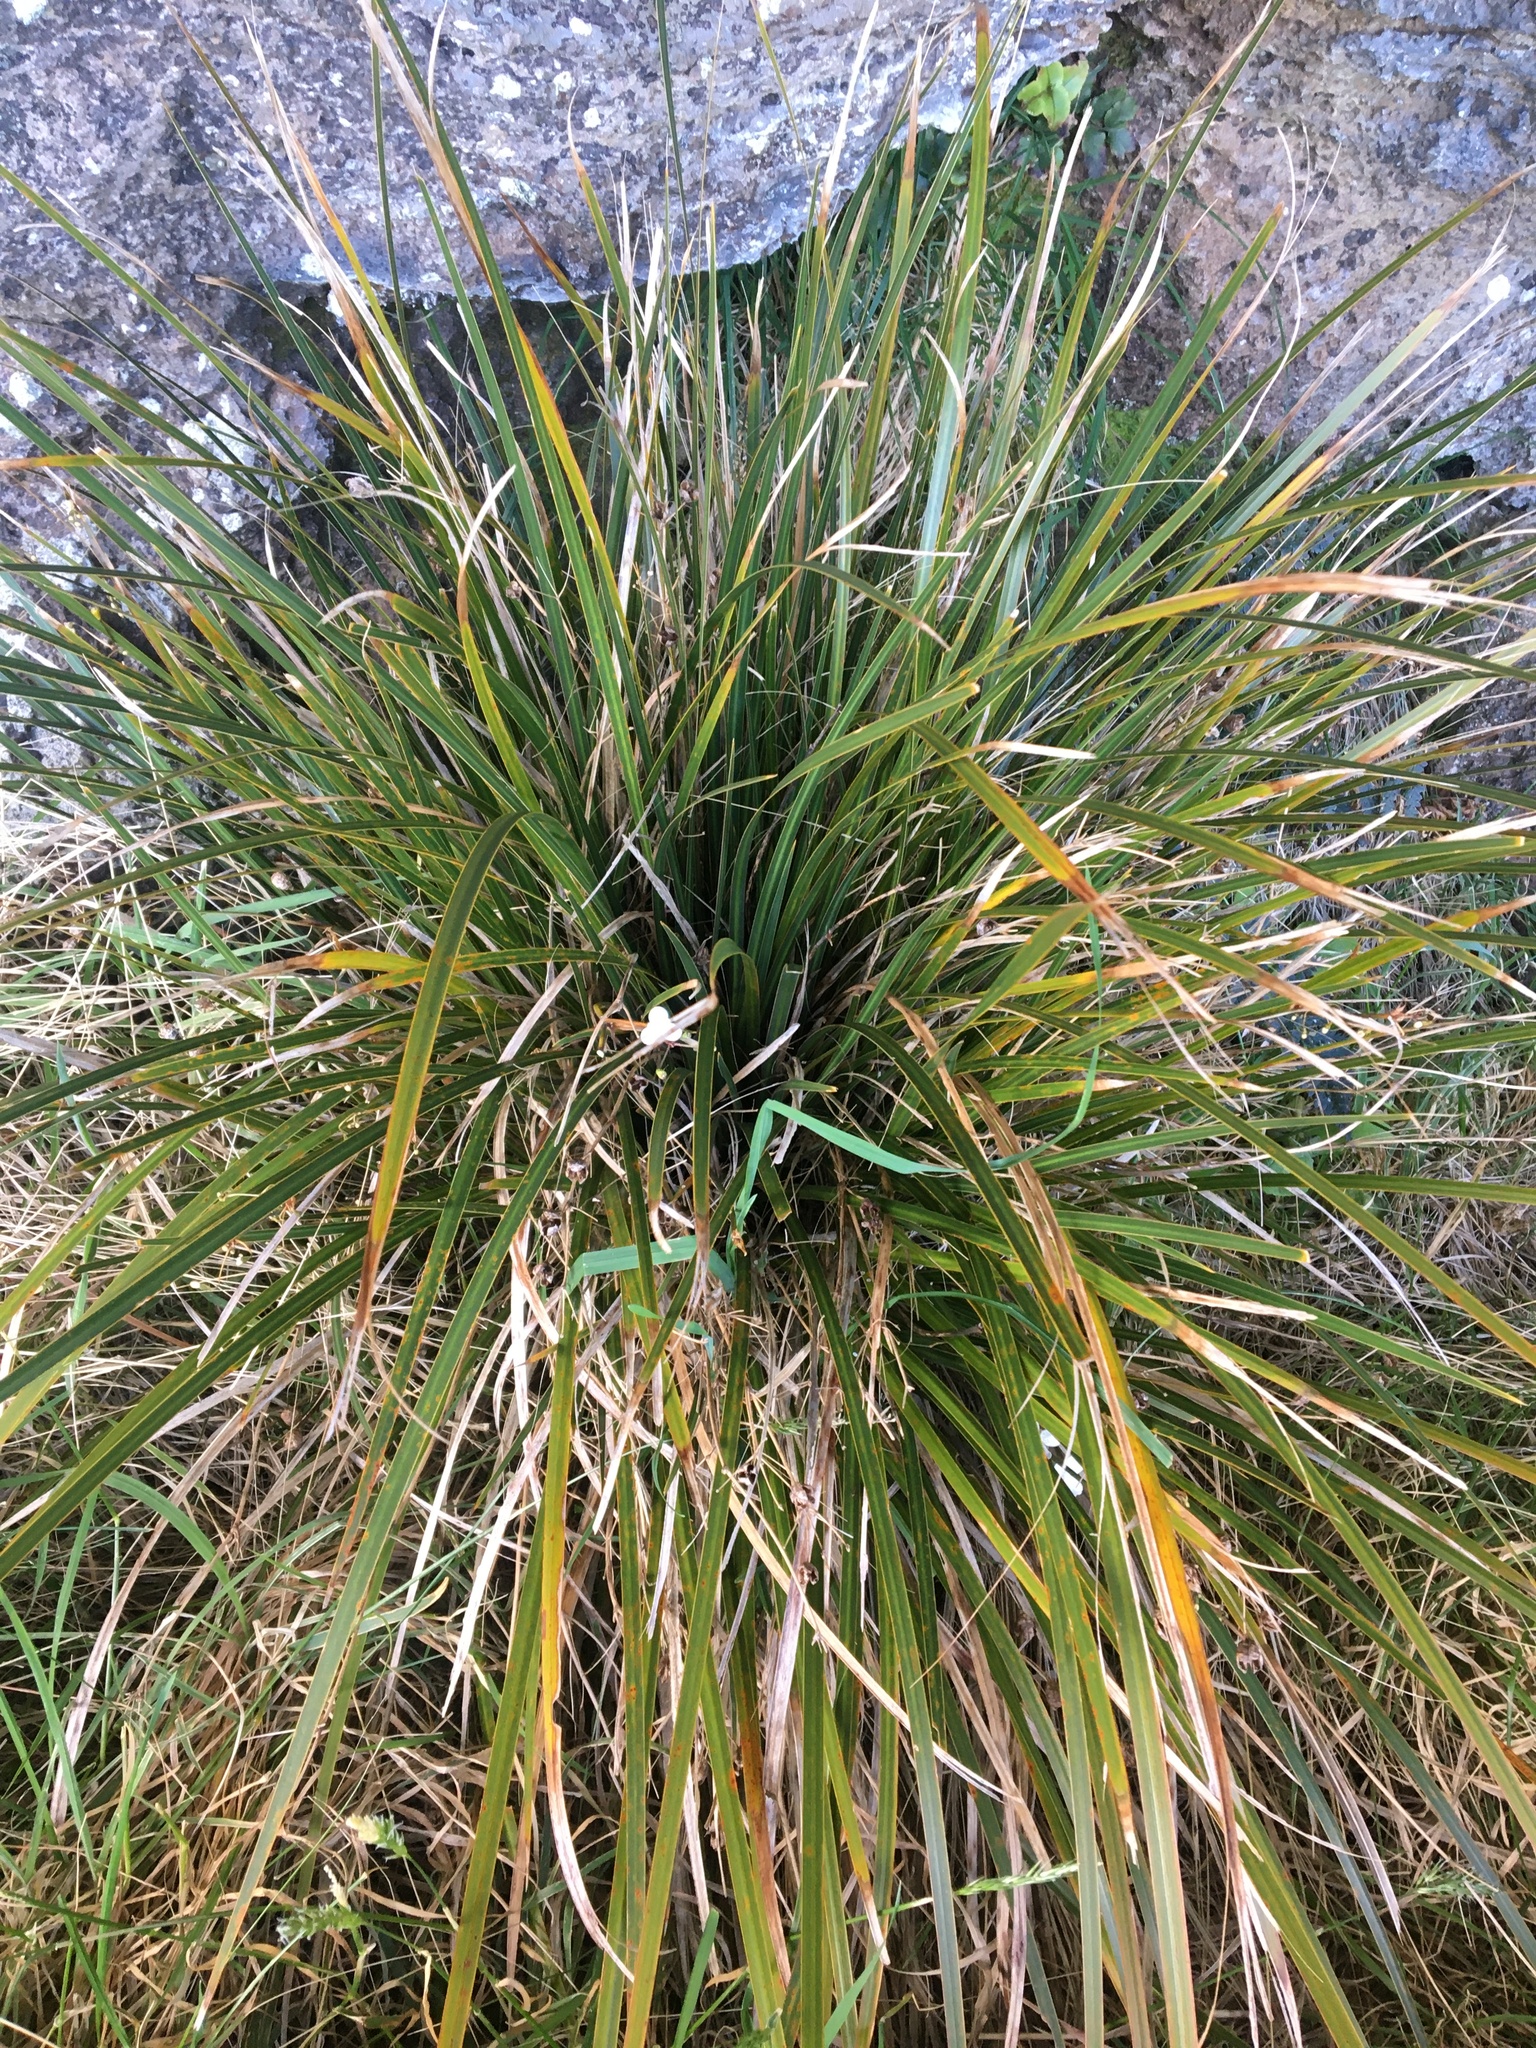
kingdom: Plantae
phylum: Tracheophyta
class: Liliopsida
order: Asparagales
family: Iridaceae
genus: Libertia
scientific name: Libertia ixioides
